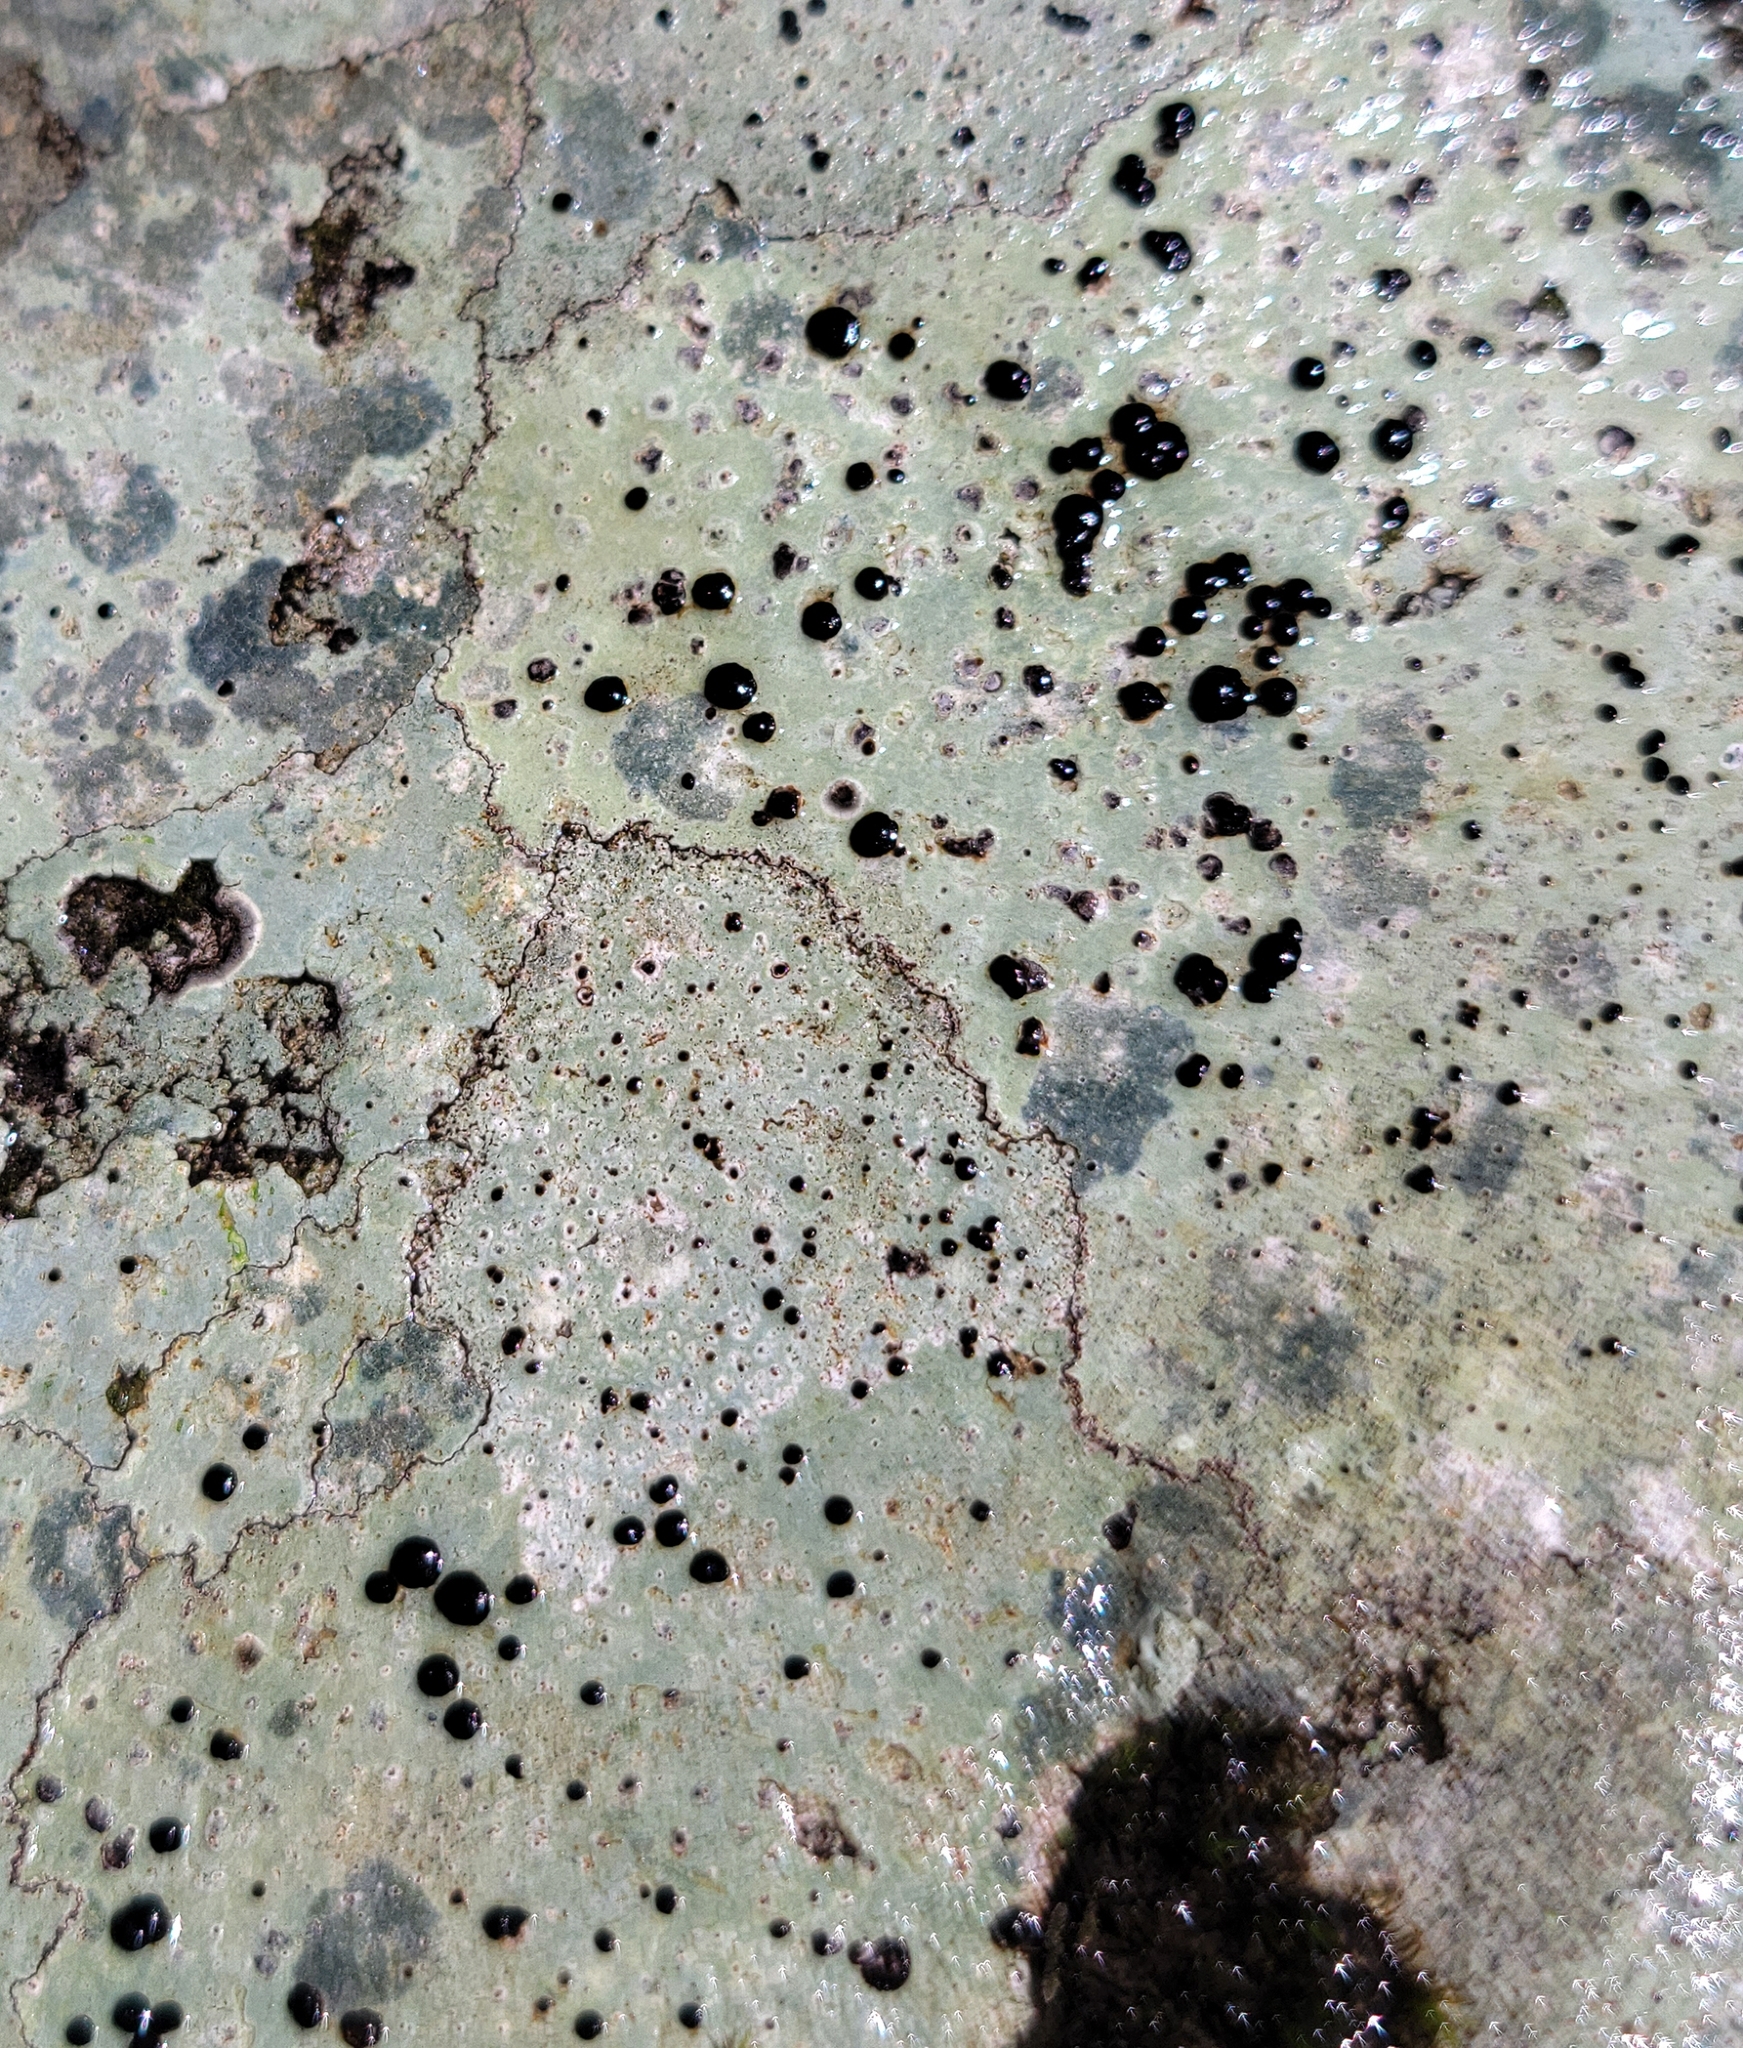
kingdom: Fungi
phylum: Ascomycota
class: Lecanoromycetes
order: Lecideales
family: Lecideaceae
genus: Porpidia
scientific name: Porpidia macrocarpa
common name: Common boulder lichen
